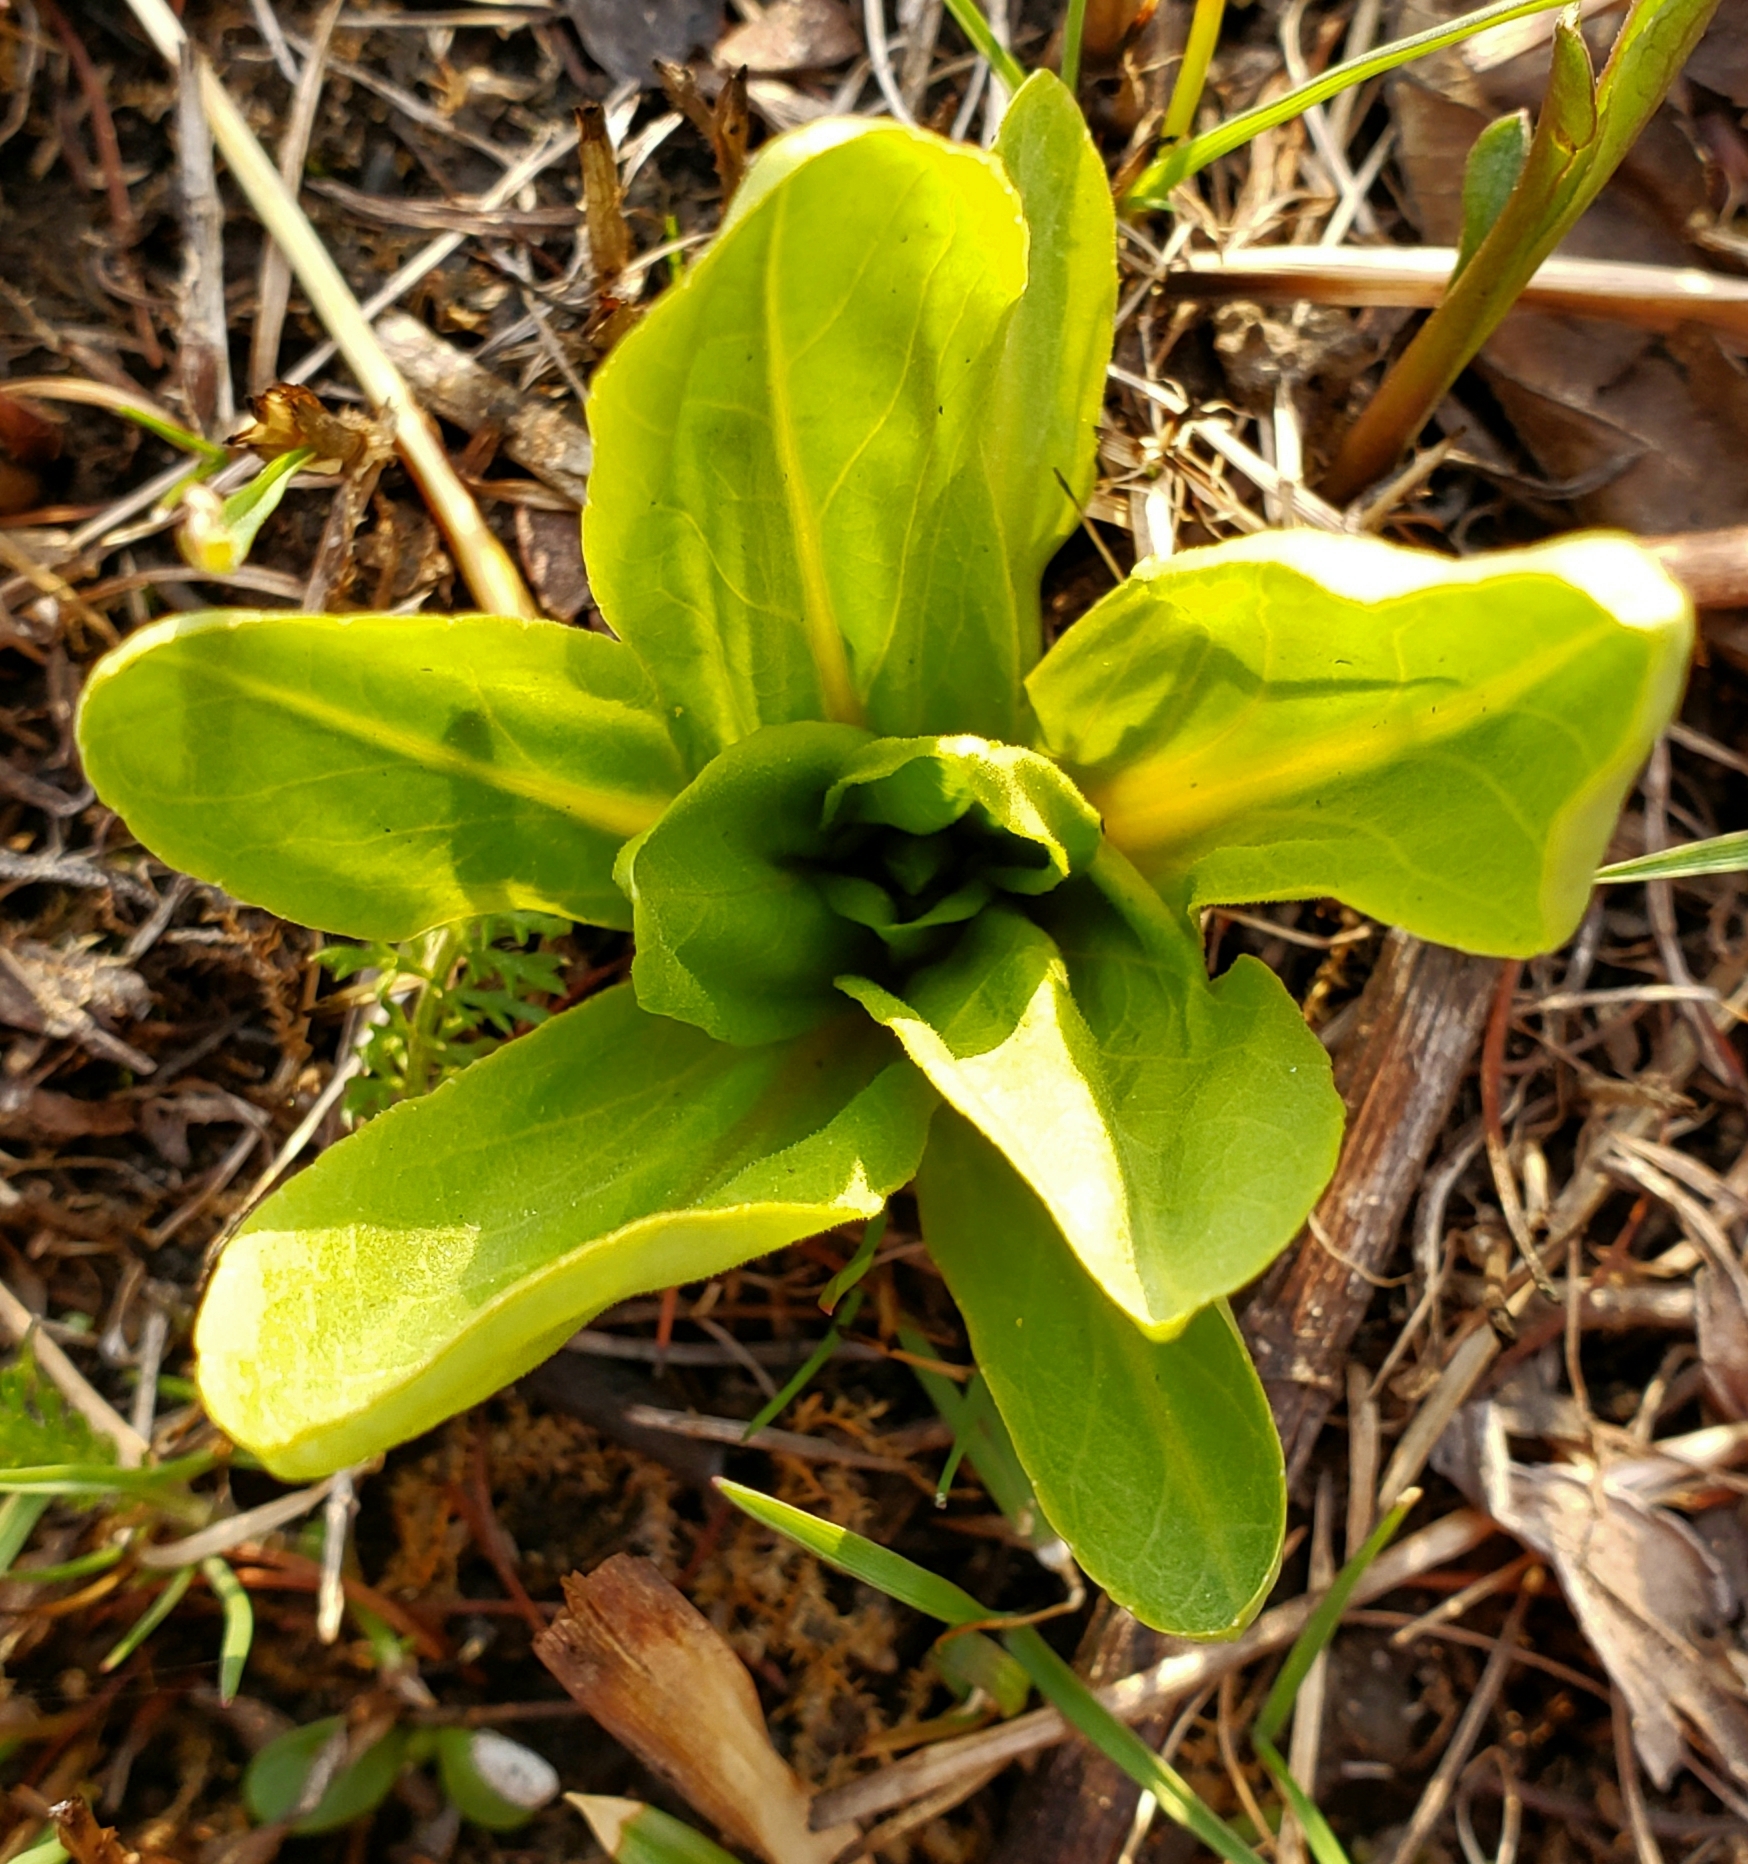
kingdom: Plantae
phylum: Tracheophyta
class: Magnoliopsida
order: Ericales
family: Primulaceae
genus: Dodecatheon
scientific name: Dodecatheon meadia
